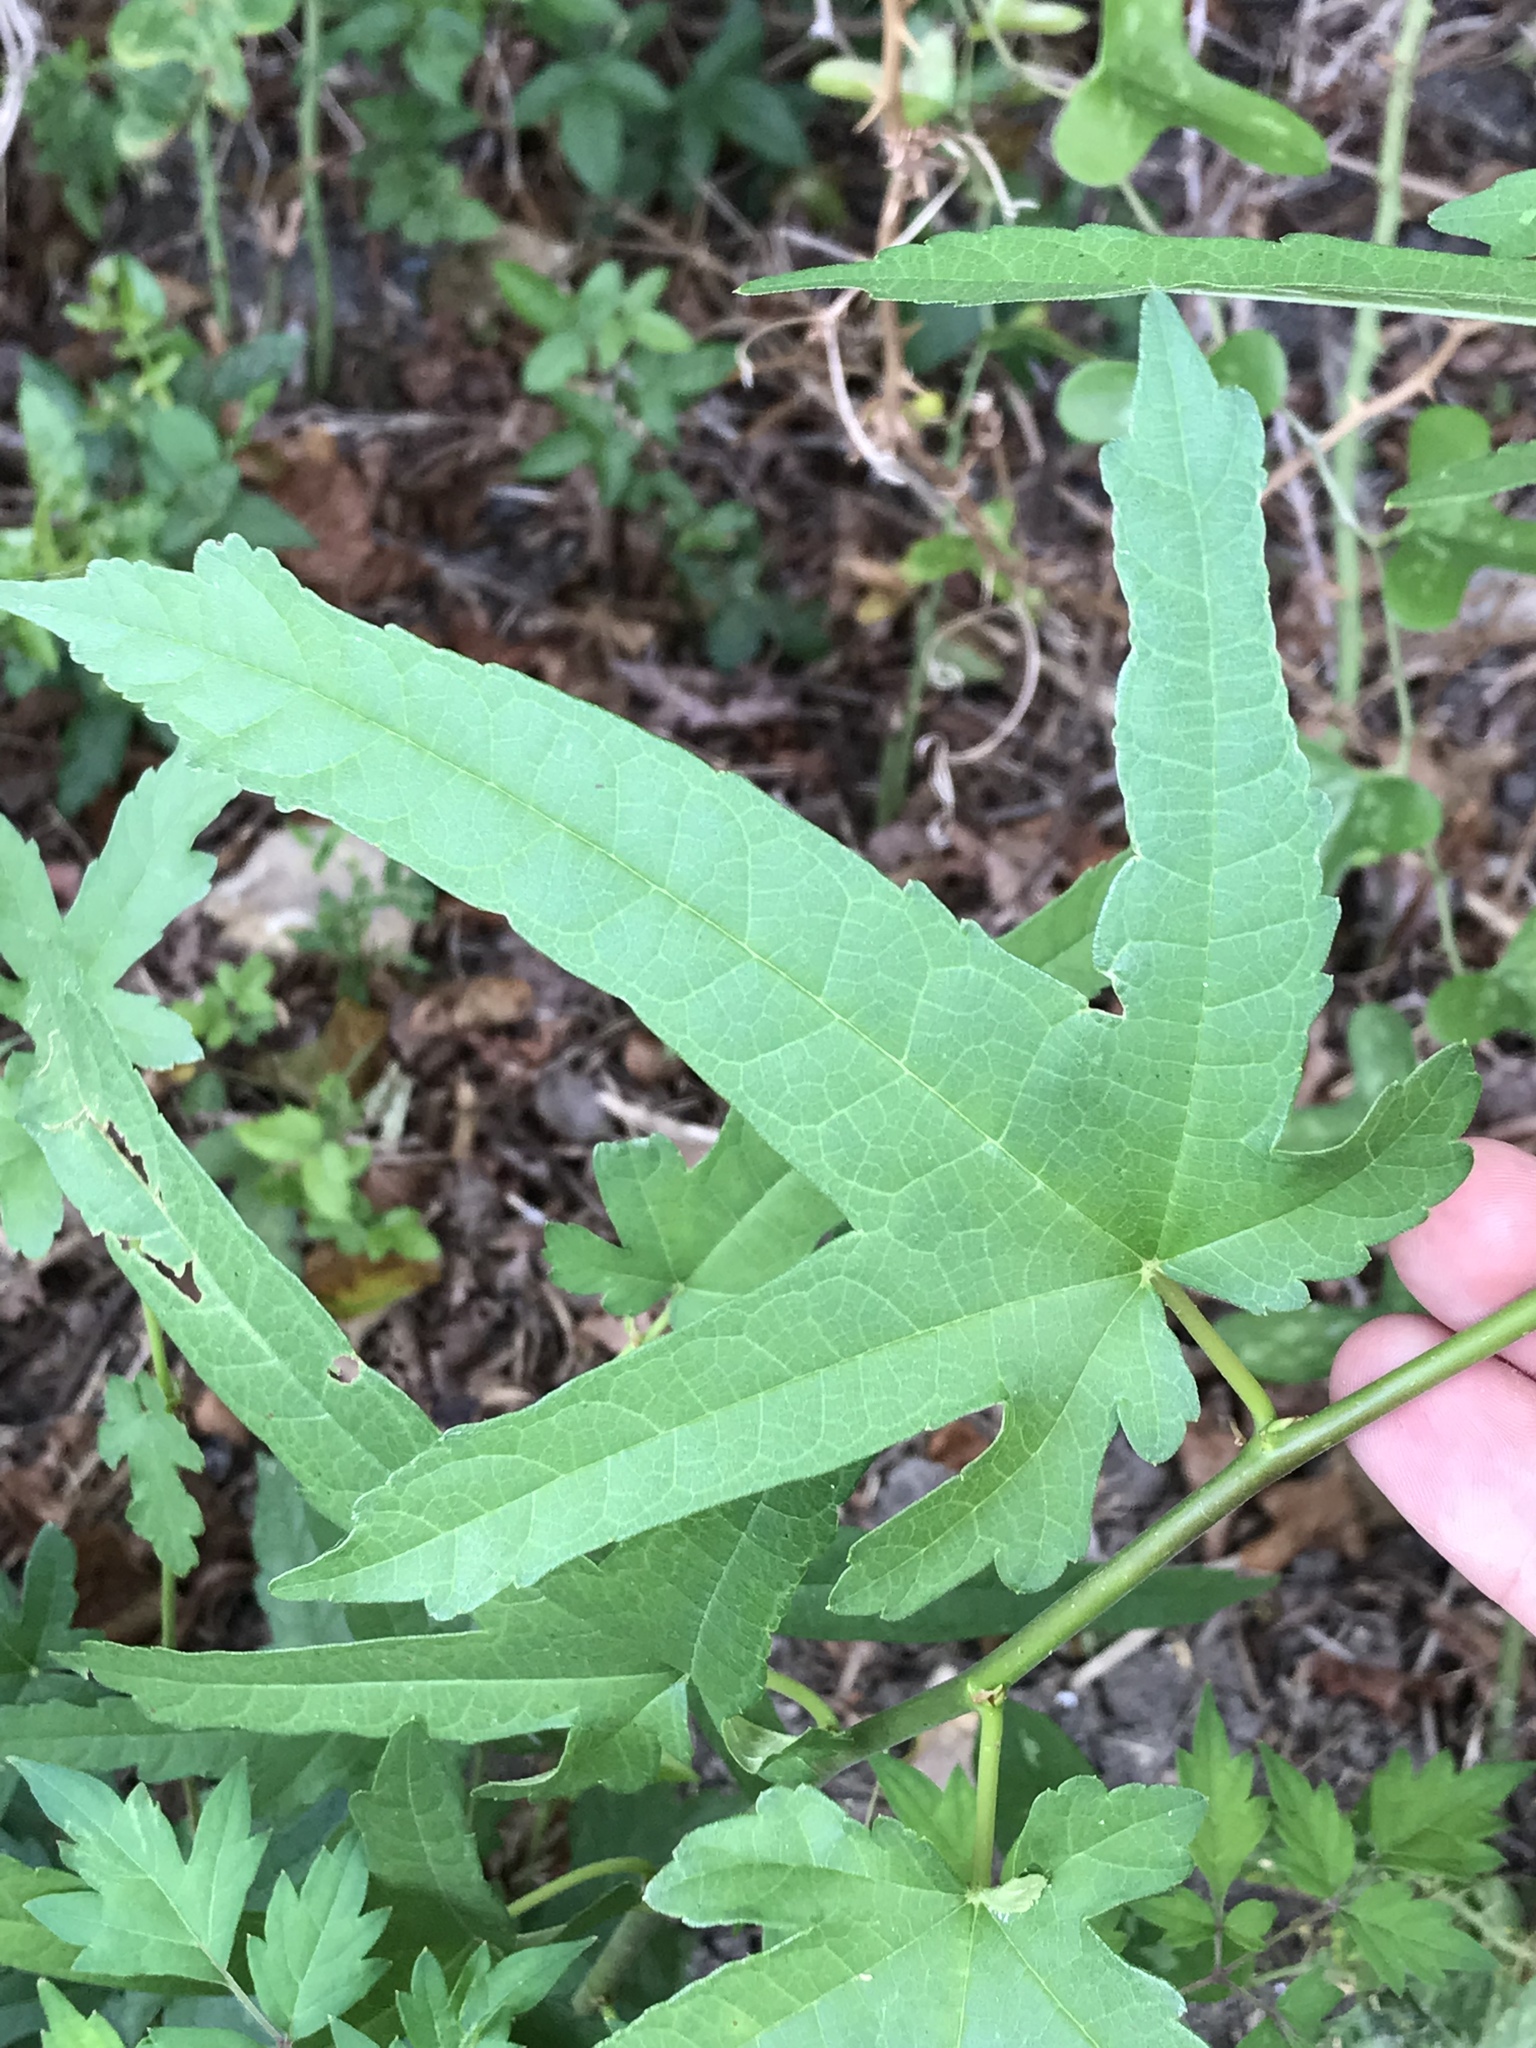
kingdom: Plantae
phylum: Tracheophyta
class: Magnoliopsida
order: Rosales
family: Moraceae
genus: Morus
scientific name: Morus indica
